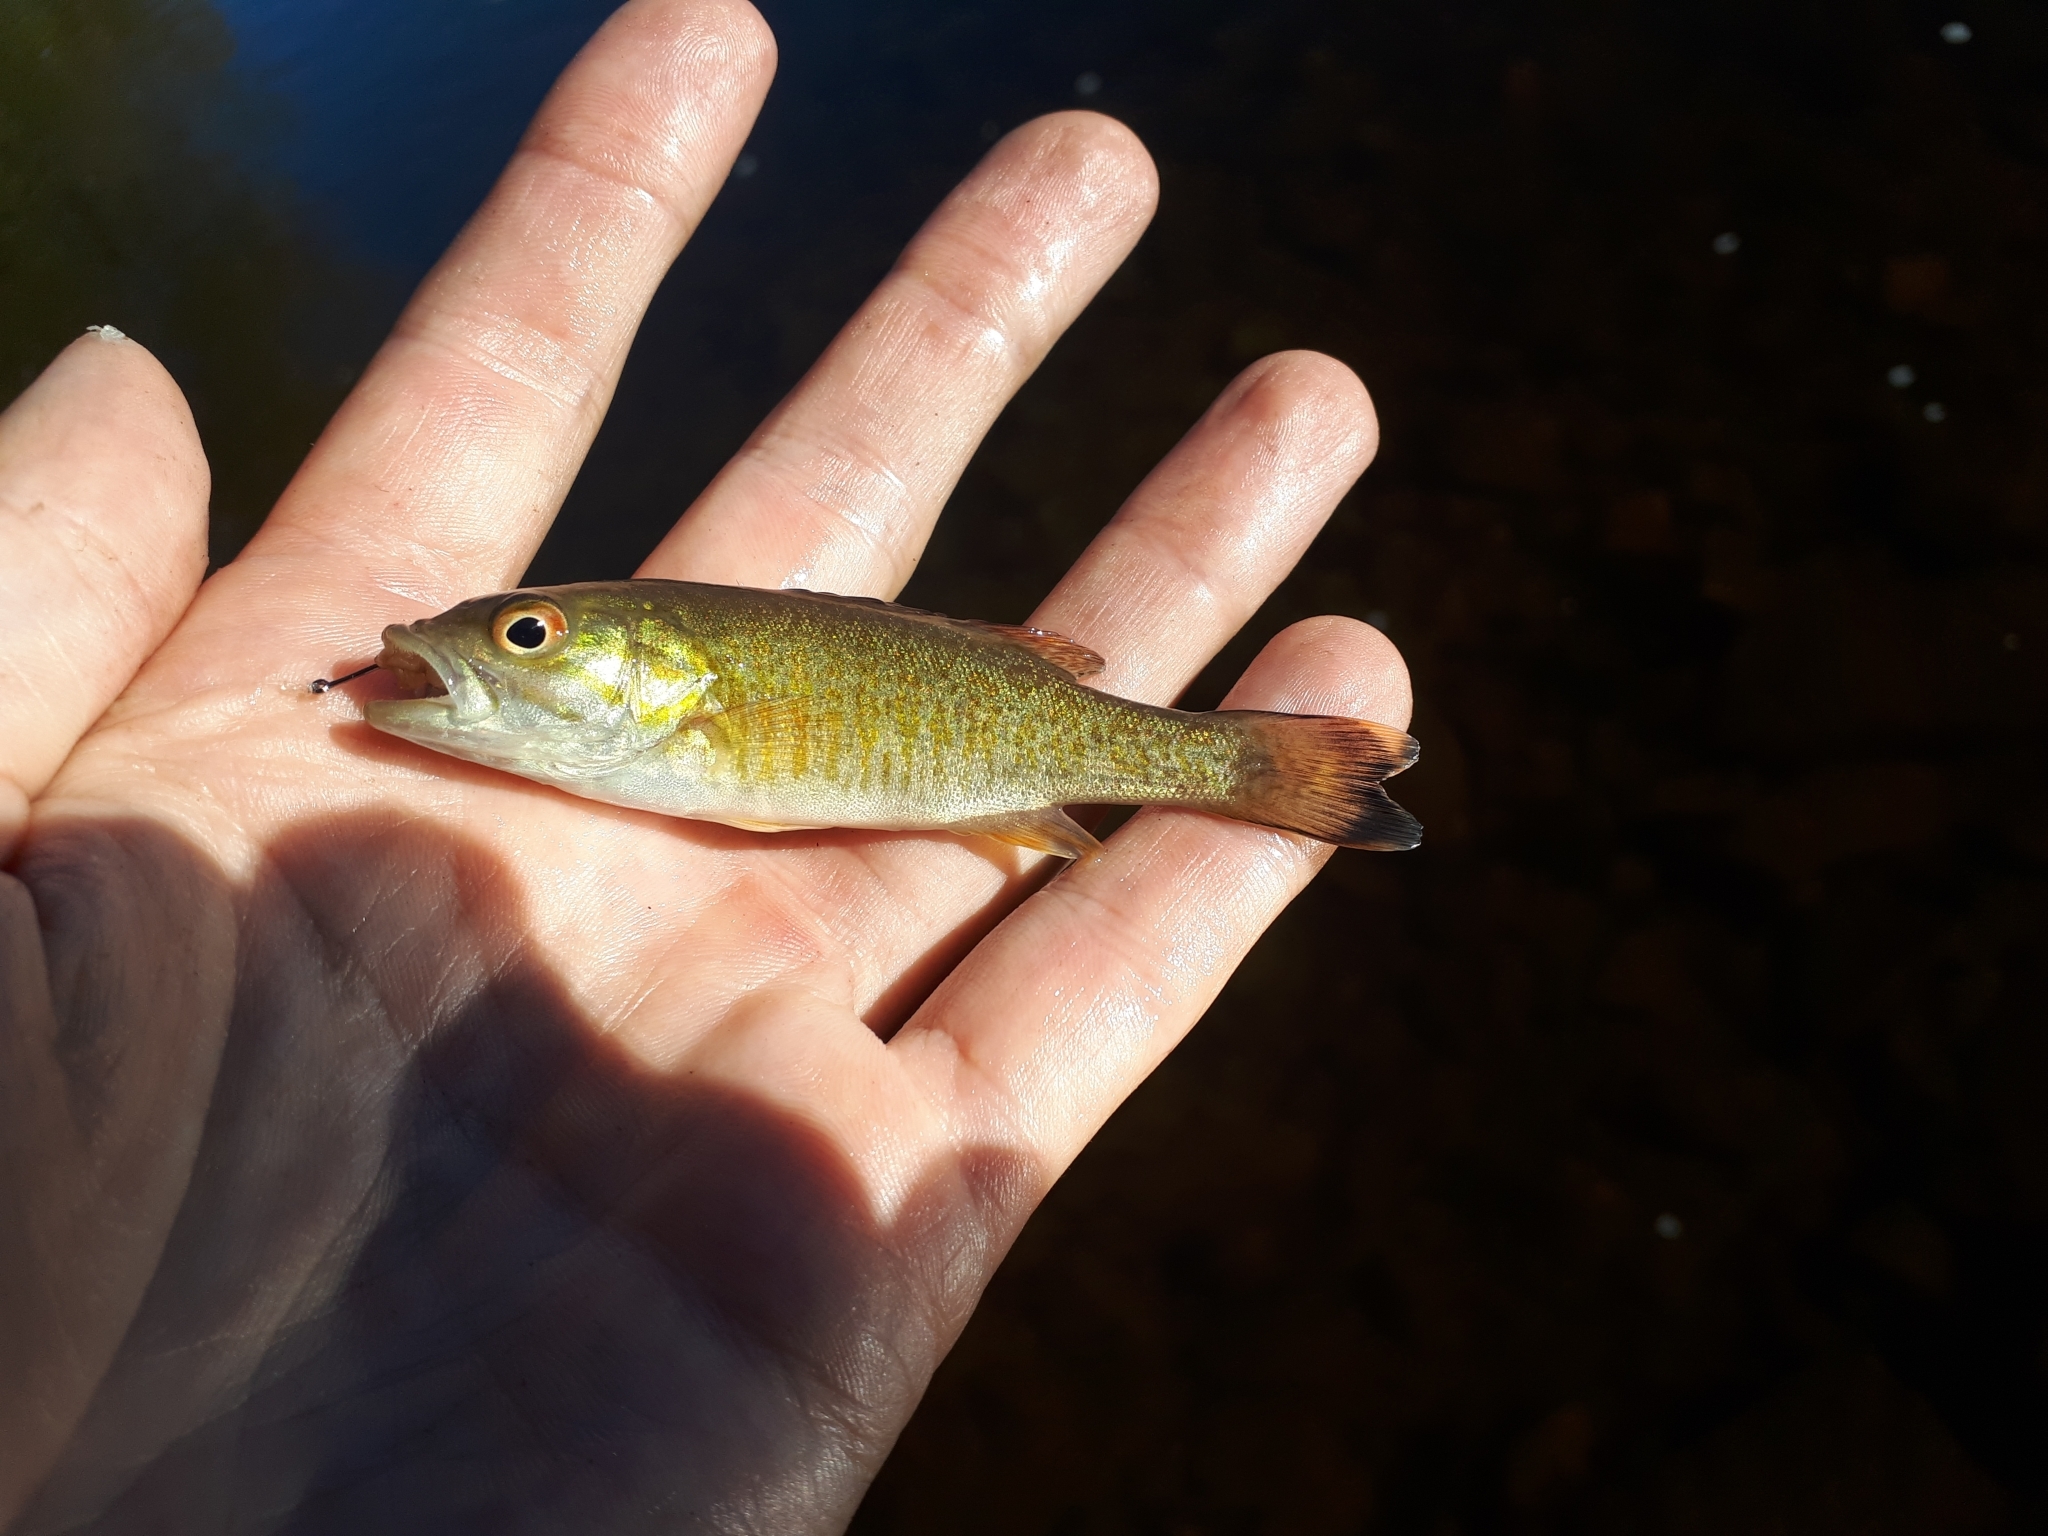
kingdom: Animalia
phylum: Chordata
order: Perciformes
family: Centrarchidae
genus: Micropterus
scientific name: Micropterus dolomieu
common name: Smallmouth bass
